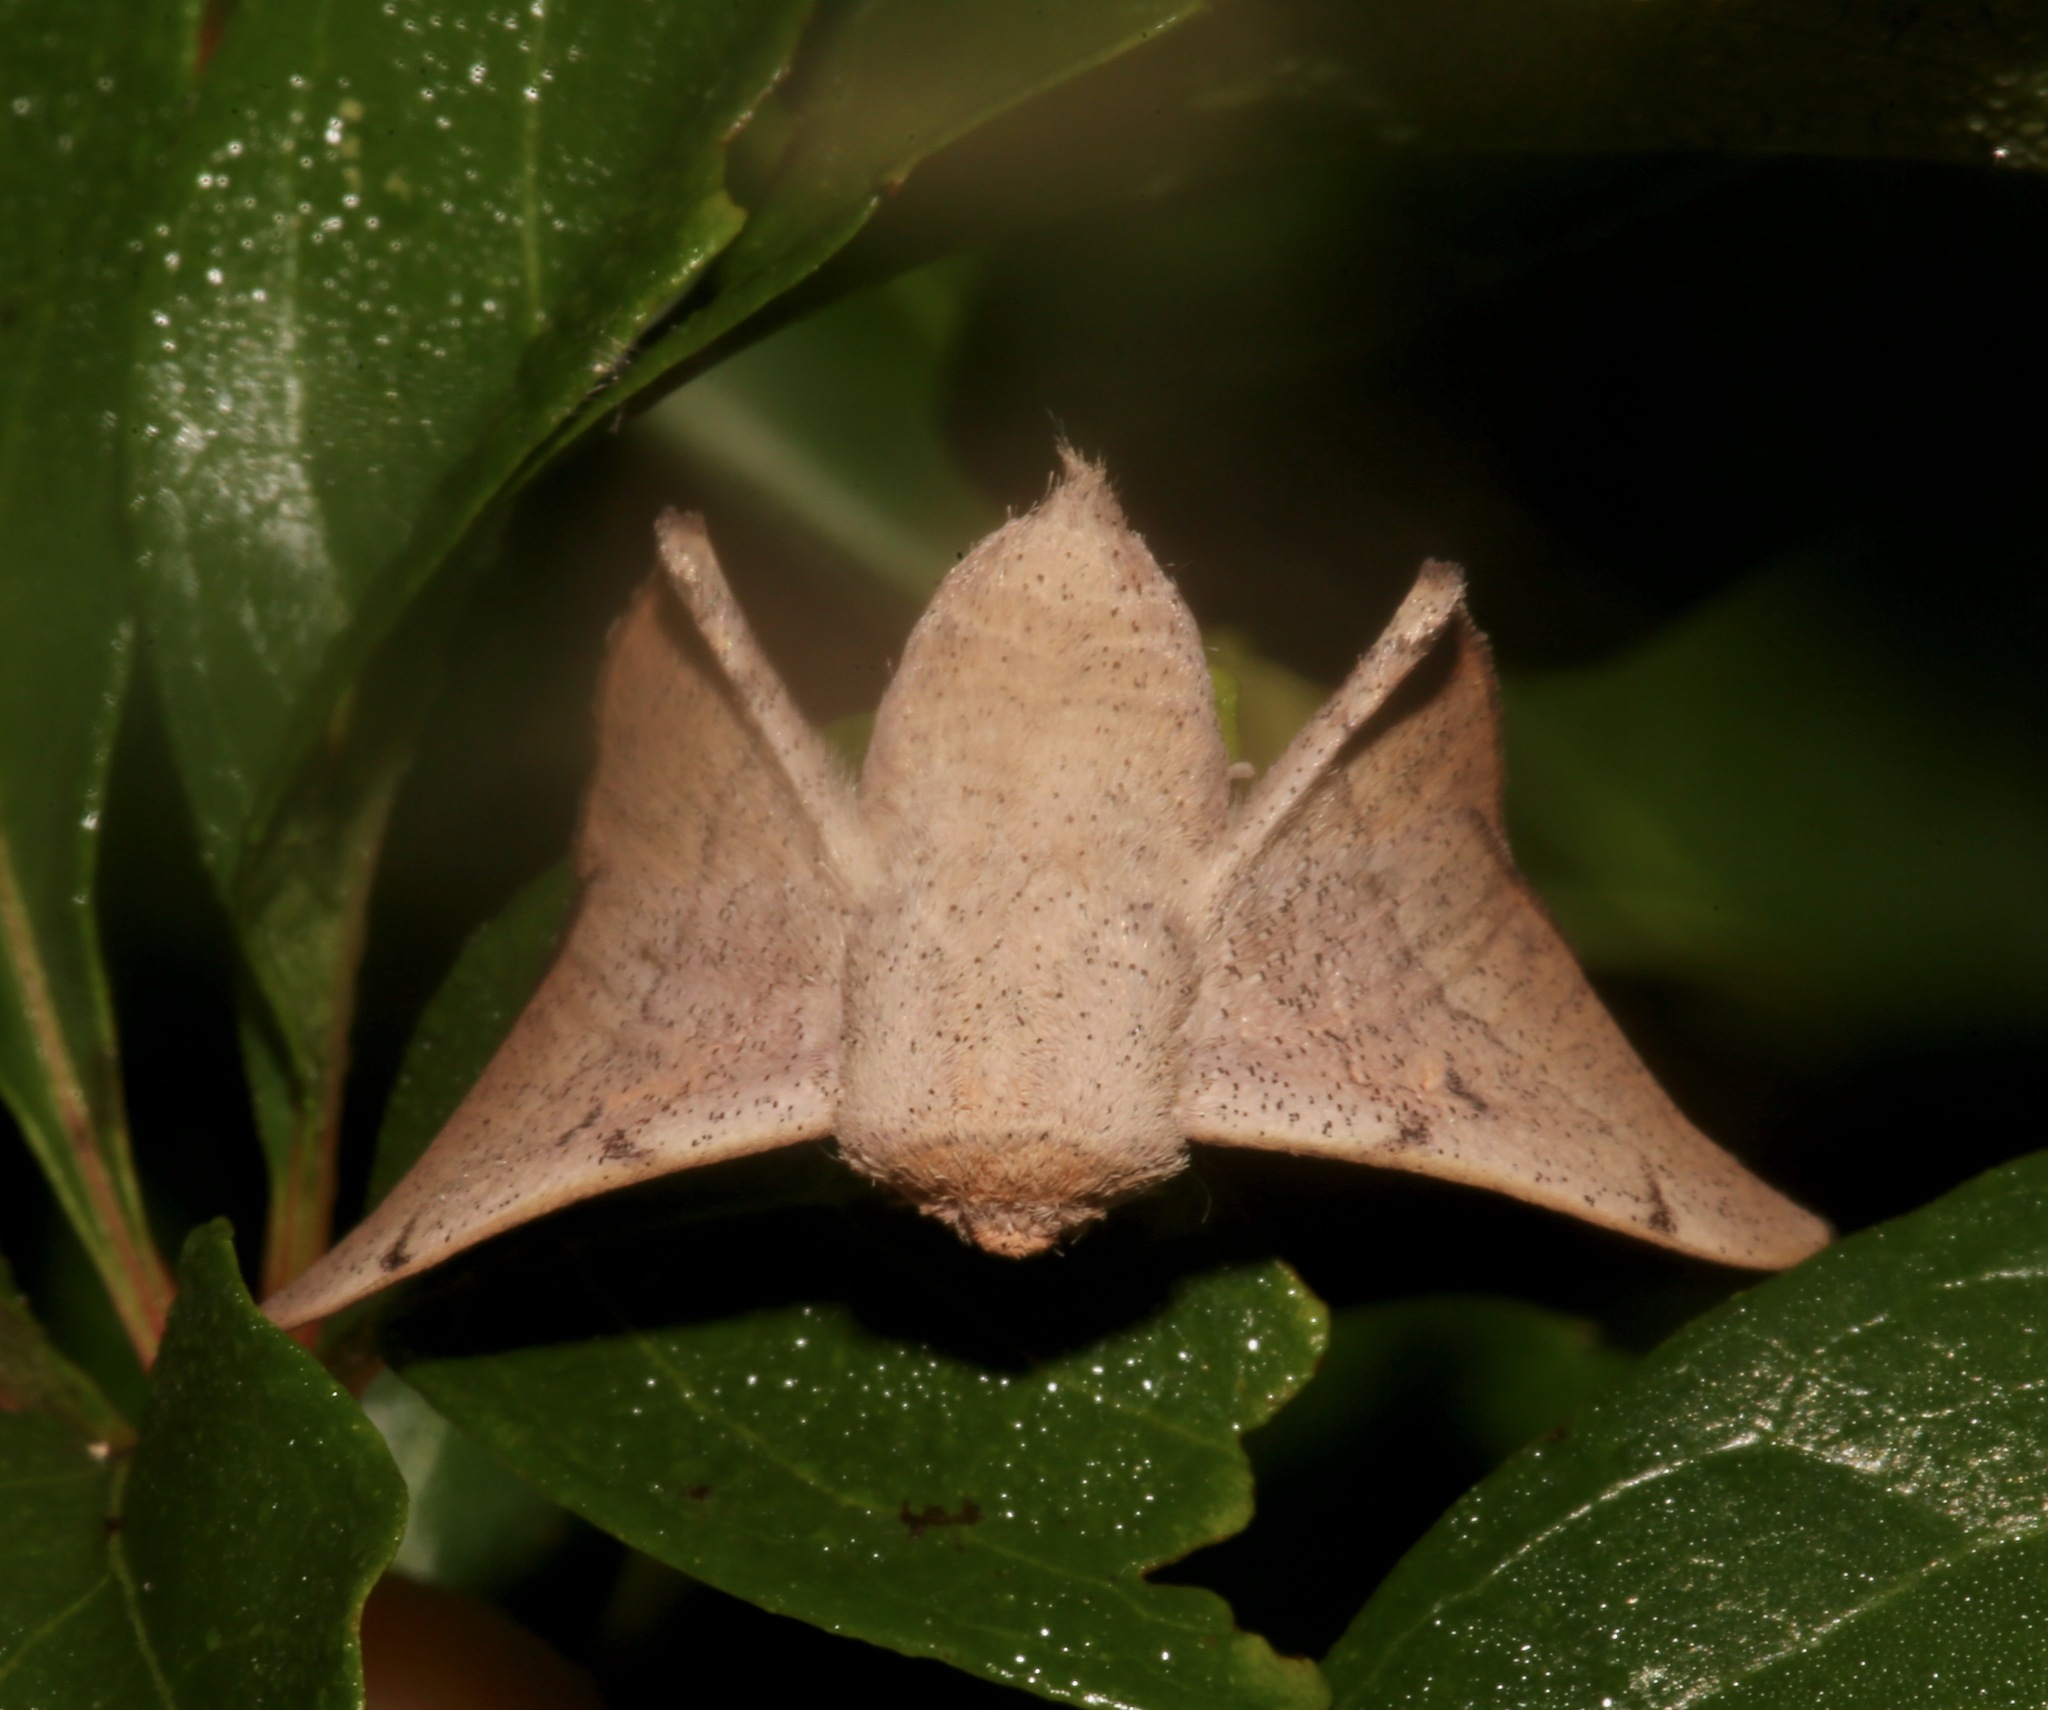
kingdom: Animalia
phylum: Arthropoda
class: Insecta
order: Lepidoptera
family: Mimallonidae
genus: Cicinnus
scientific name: Cicinnus melsheimeri
